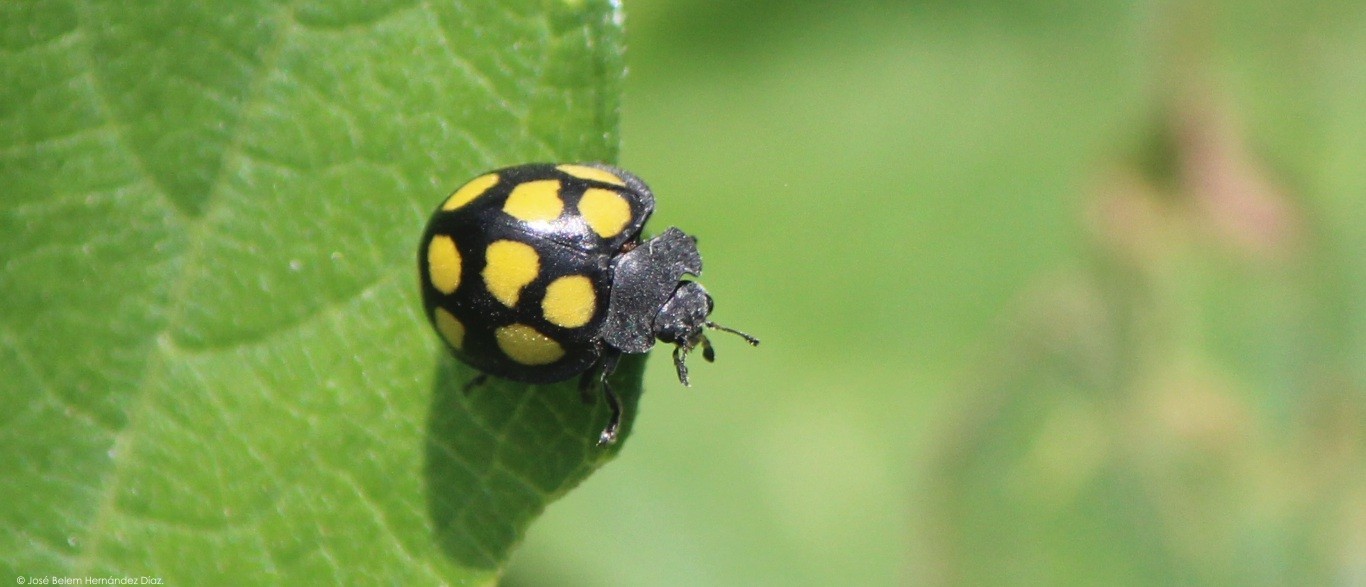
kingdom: Animalia
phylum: Arthropoda
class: Insecta
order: Coleoptera
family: Coccinellidae
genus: Epilachna
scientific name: Epilachna
